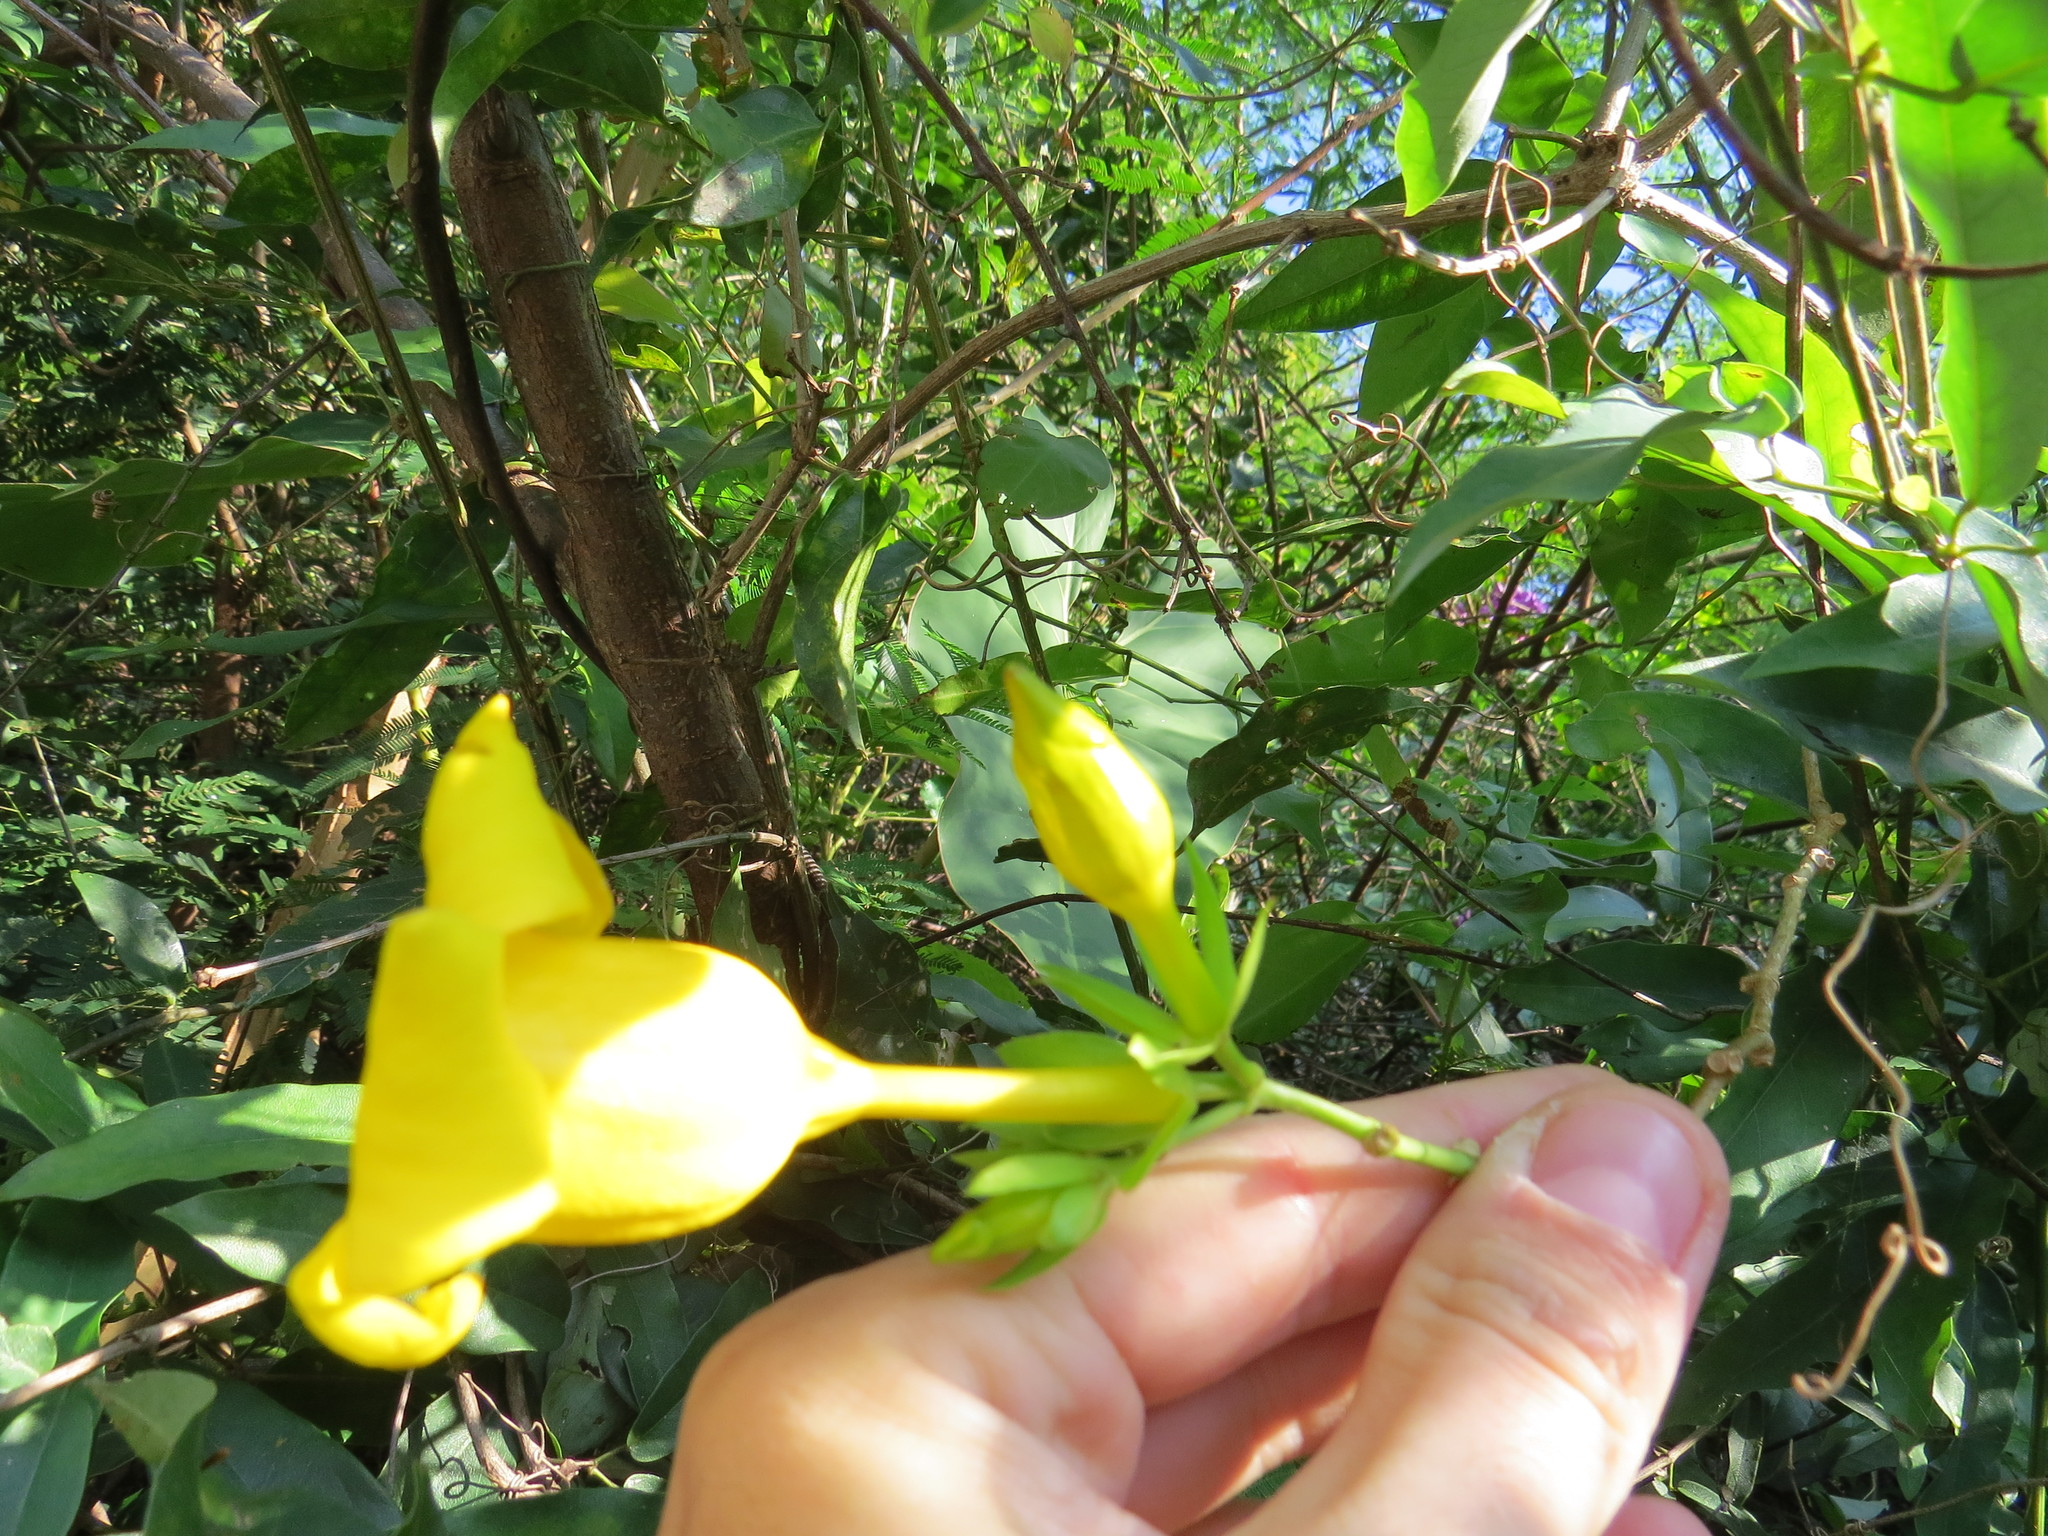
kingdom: Plantae
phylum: Tracheophyta
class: Magnoliopsida
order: Gentianales
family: Apocynaceae
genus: Allamanda
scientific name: Allamanda cathartica
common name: Golden trumpet
